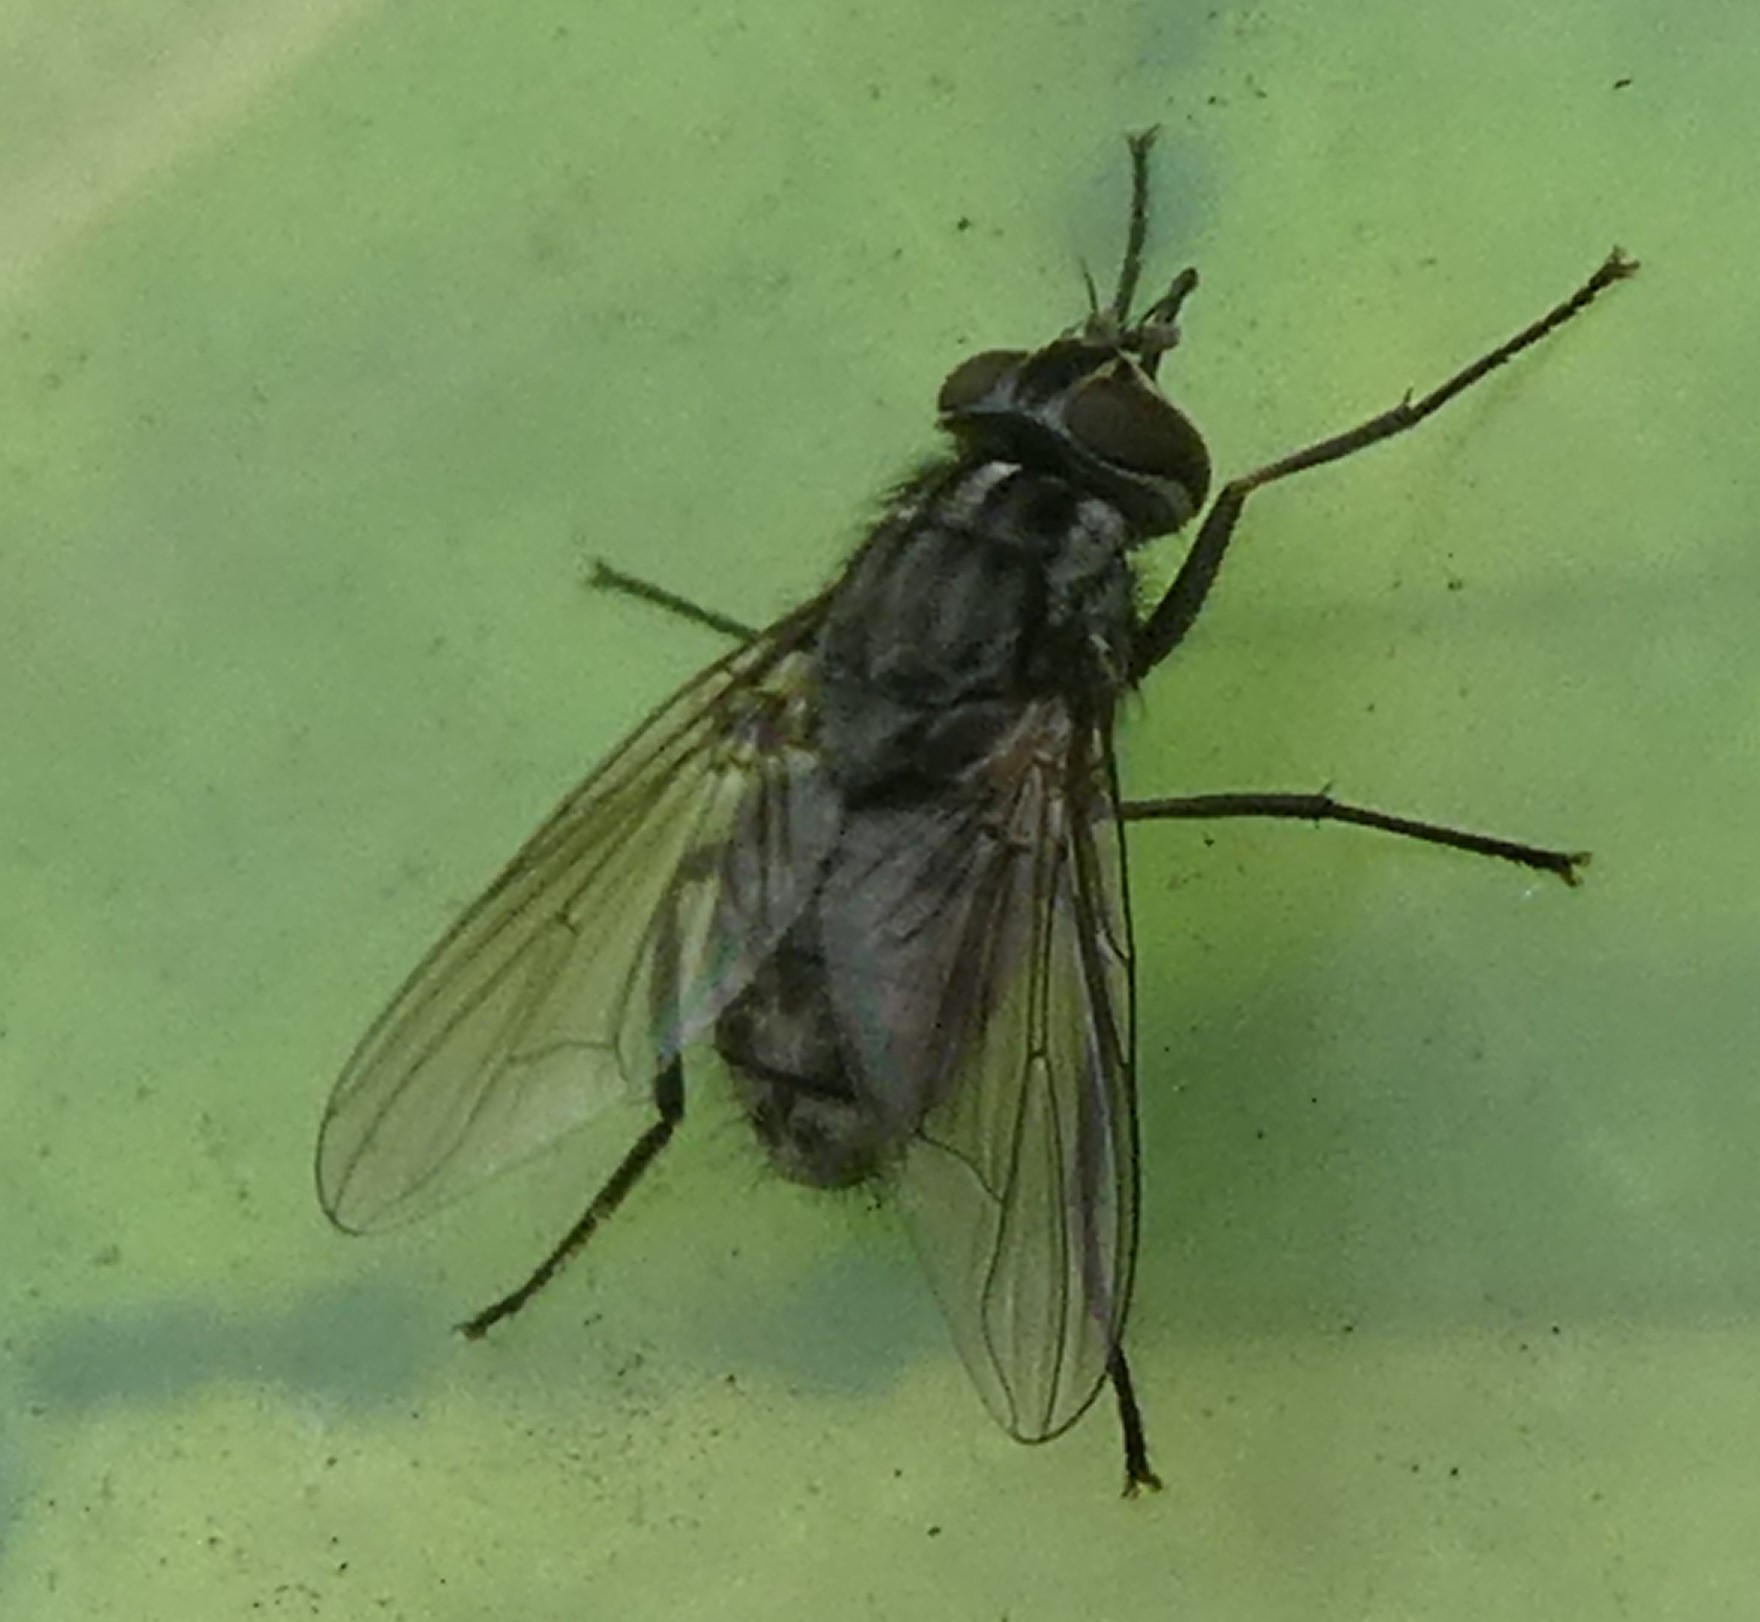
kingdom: Animalia
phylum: Arthropoda
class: Insecta
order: Diptera
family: Muscidae
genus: Stomoxys
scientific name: Stomoxys calcitrans
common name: Stable fly
